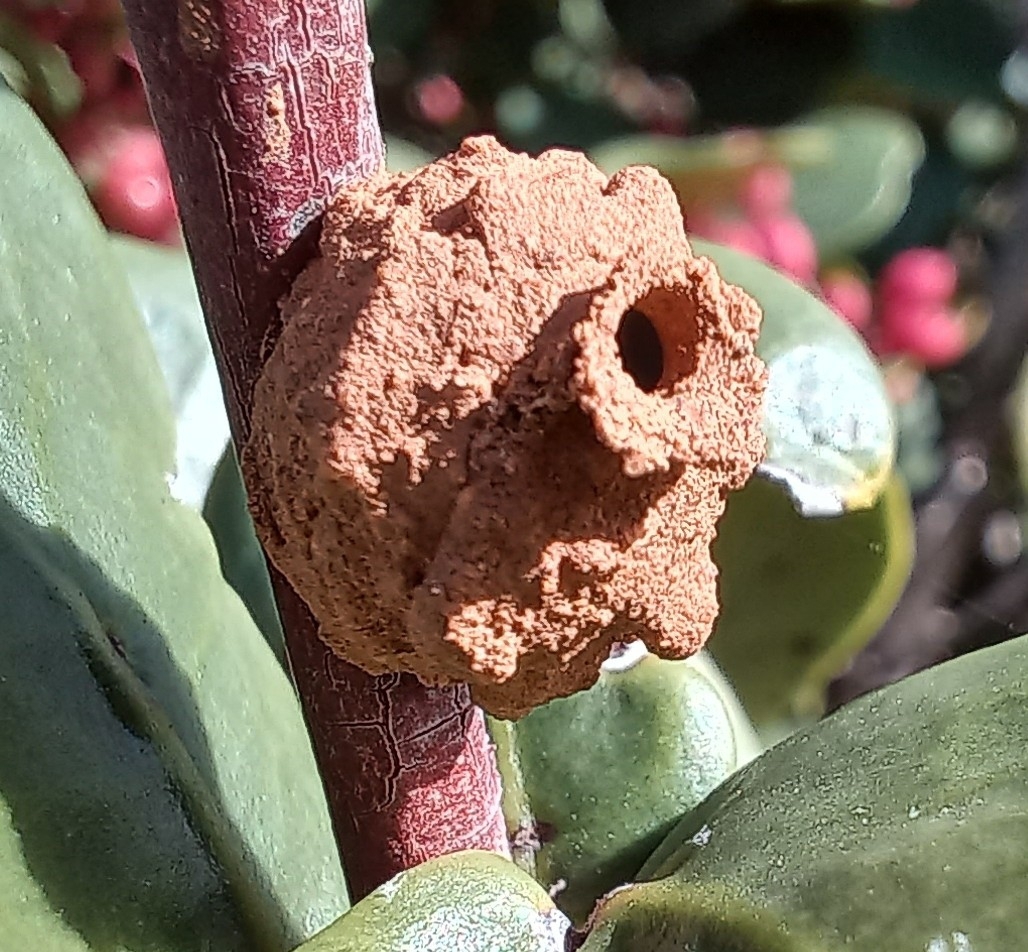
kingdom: Animalia
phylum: Arthropoda
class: Insecta
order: Hymenoptera
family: Eumenidae
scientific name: Eumenidae
